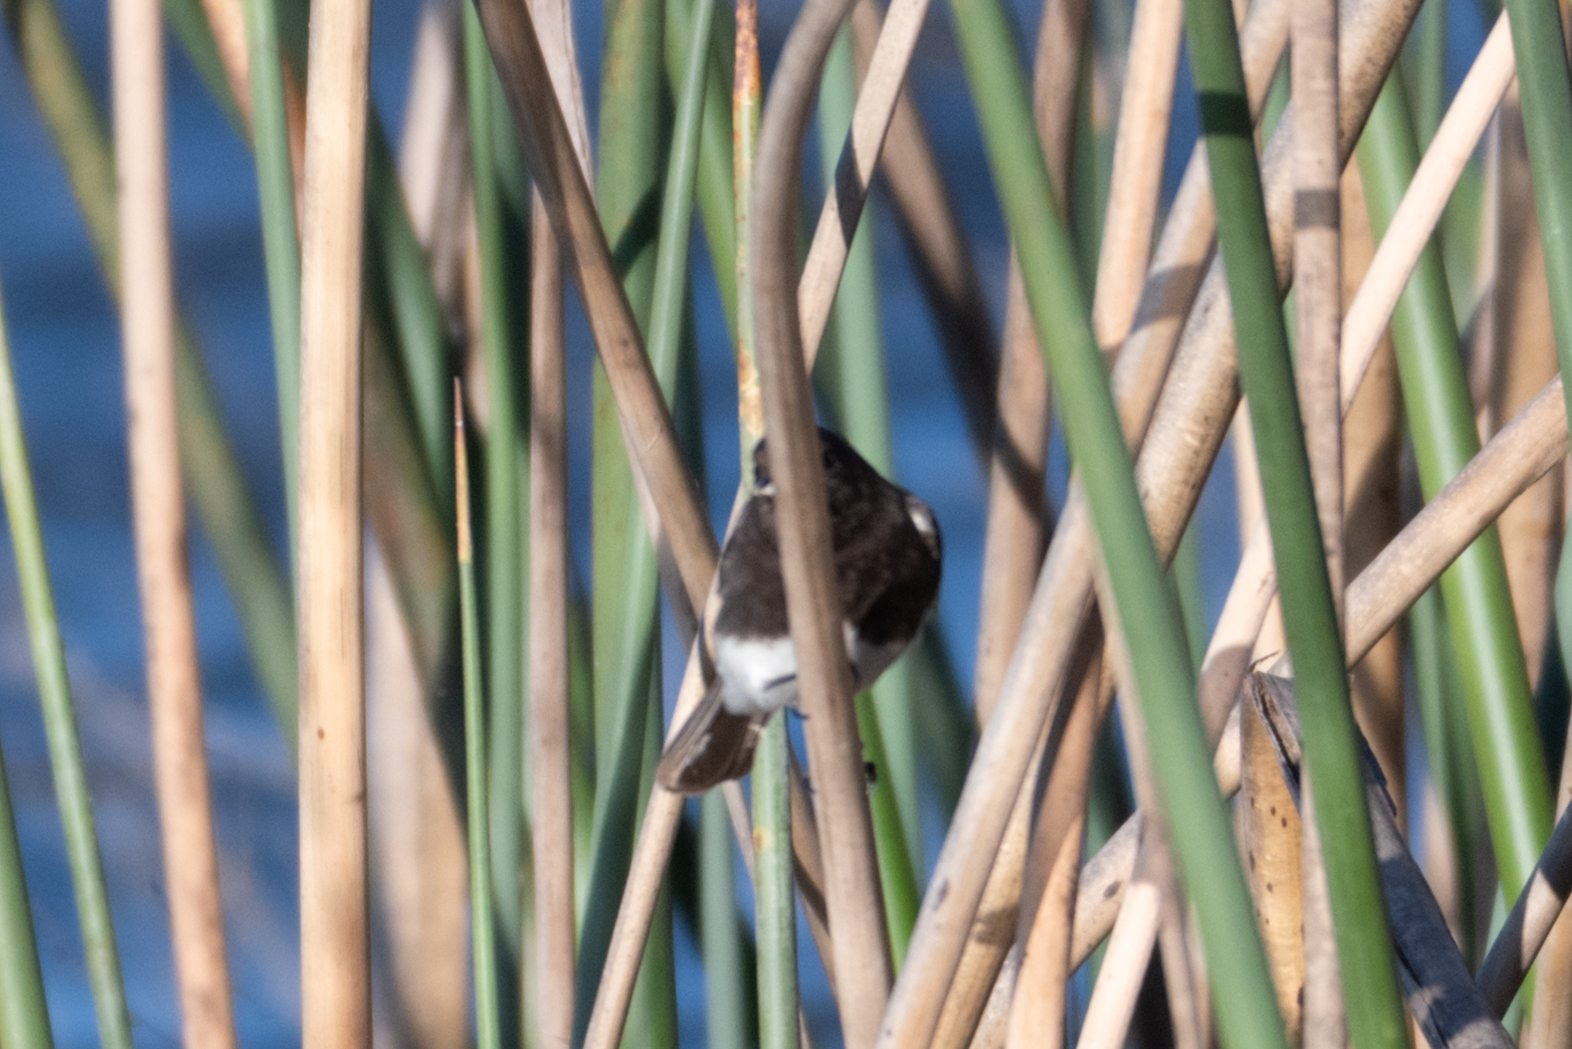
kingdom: Animalia
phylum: Chordata
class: Aves
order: Passeriformes
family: Tyrannidae
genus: Sayornis
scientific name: Sayornis nigricans
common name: Black phoebe
